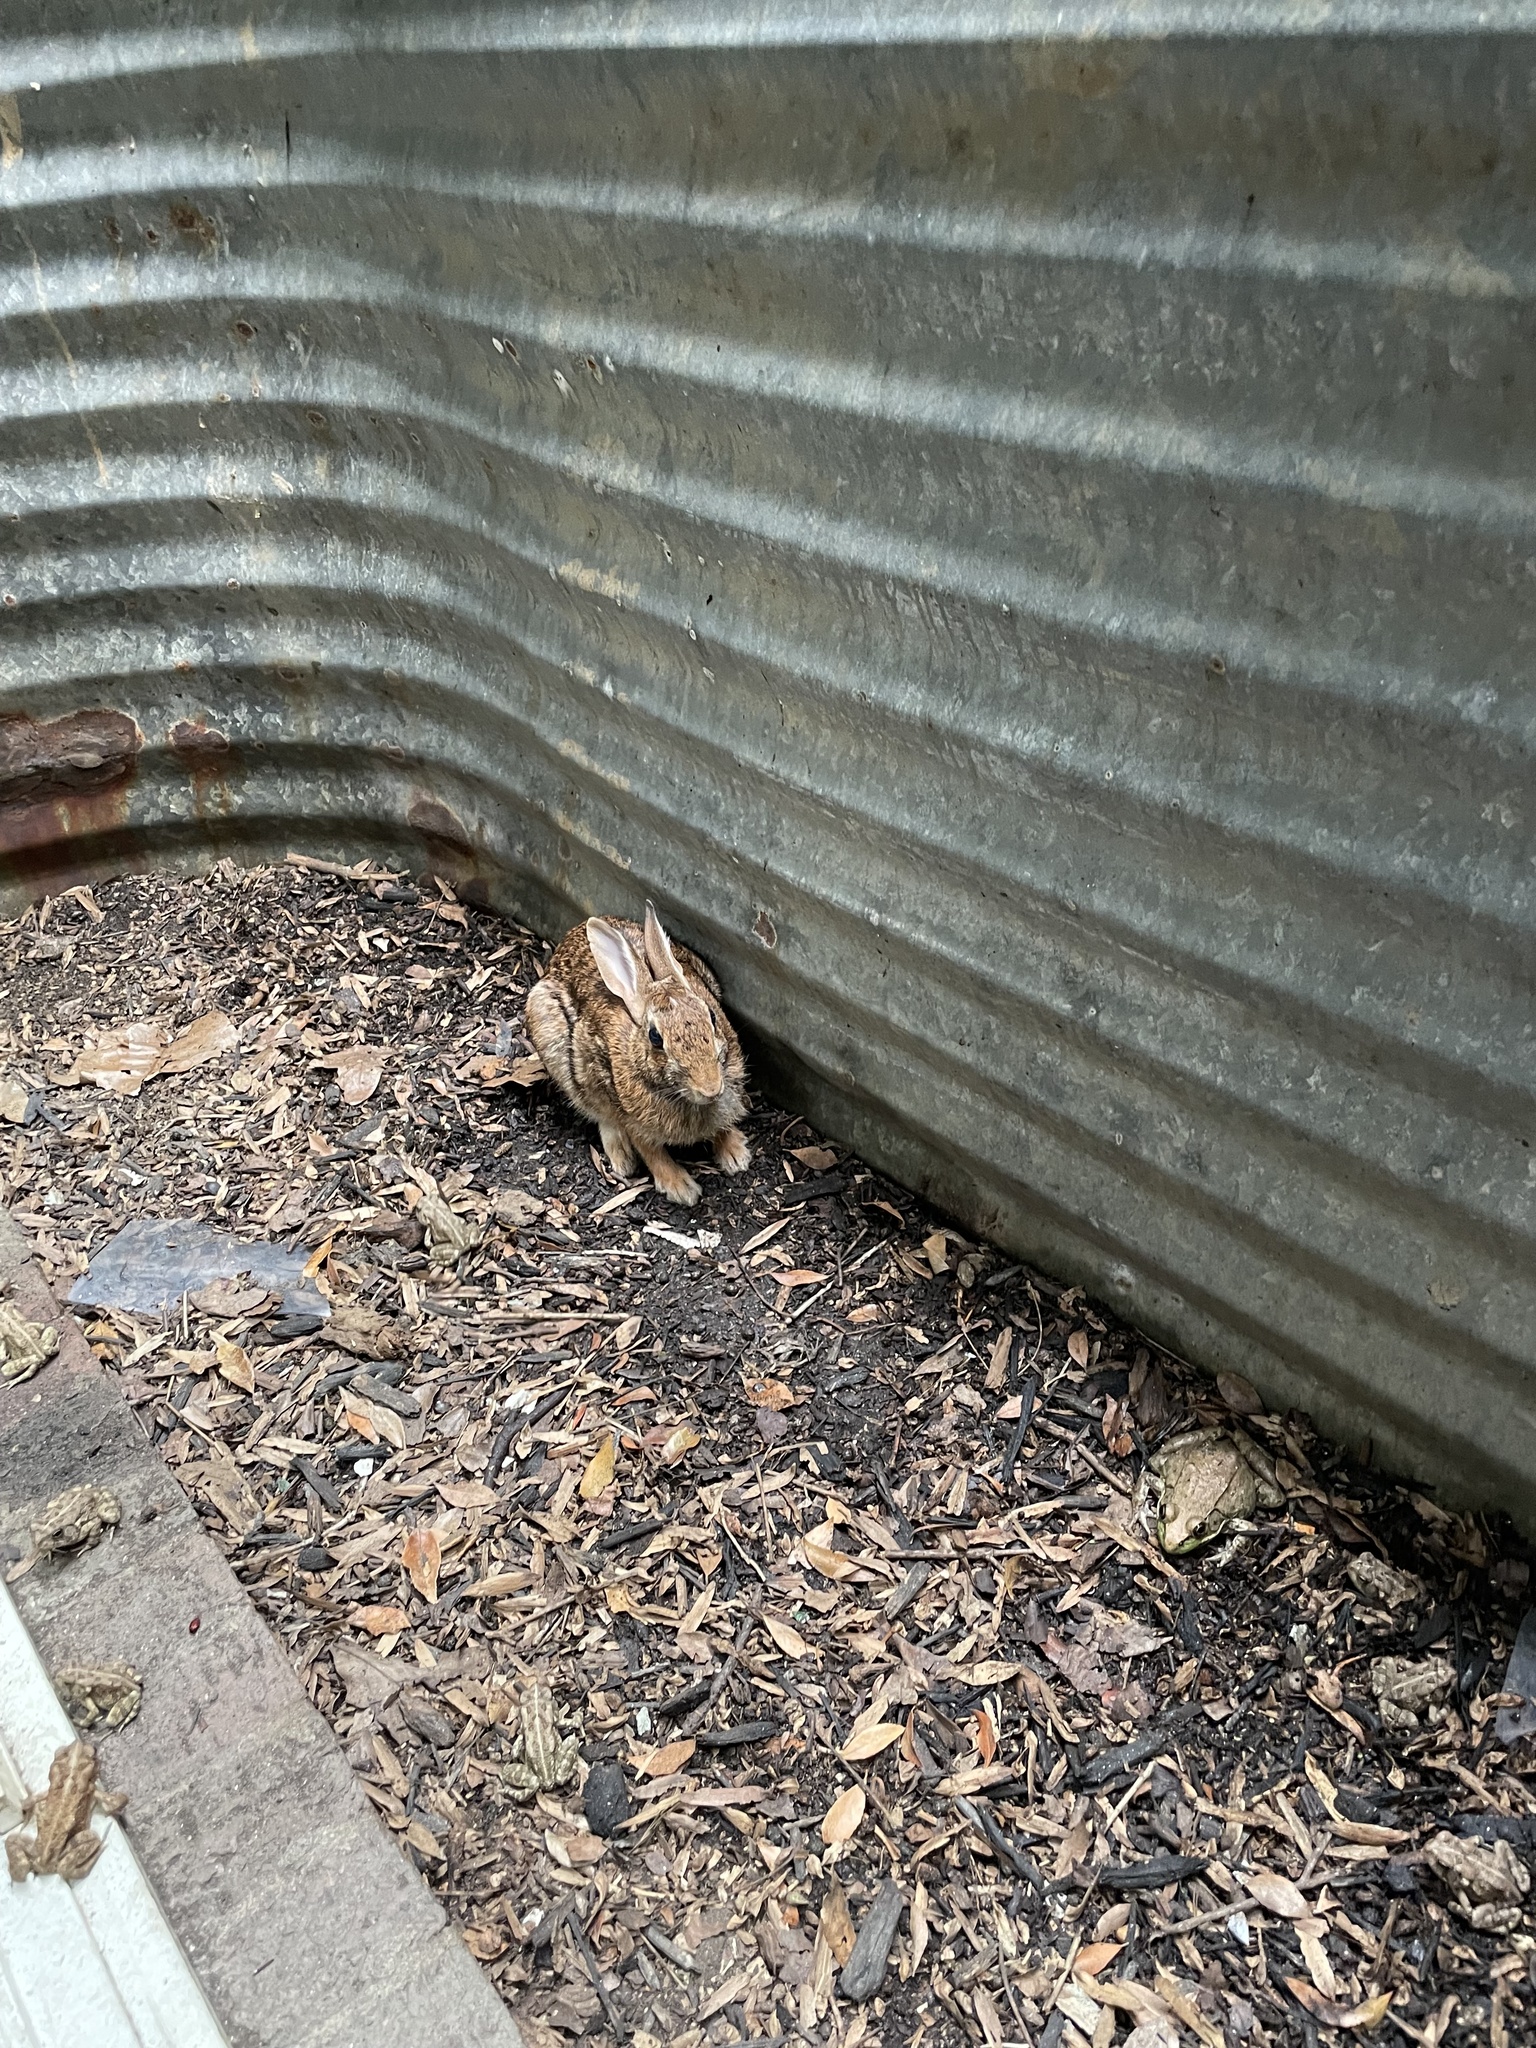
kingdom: Animalia
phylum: Chordata
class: Mammalia
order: Lagomorpha
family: Leporidae
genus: Sylvilagus
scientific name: Sylvilagus floridanus
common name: Eastern cottontail
